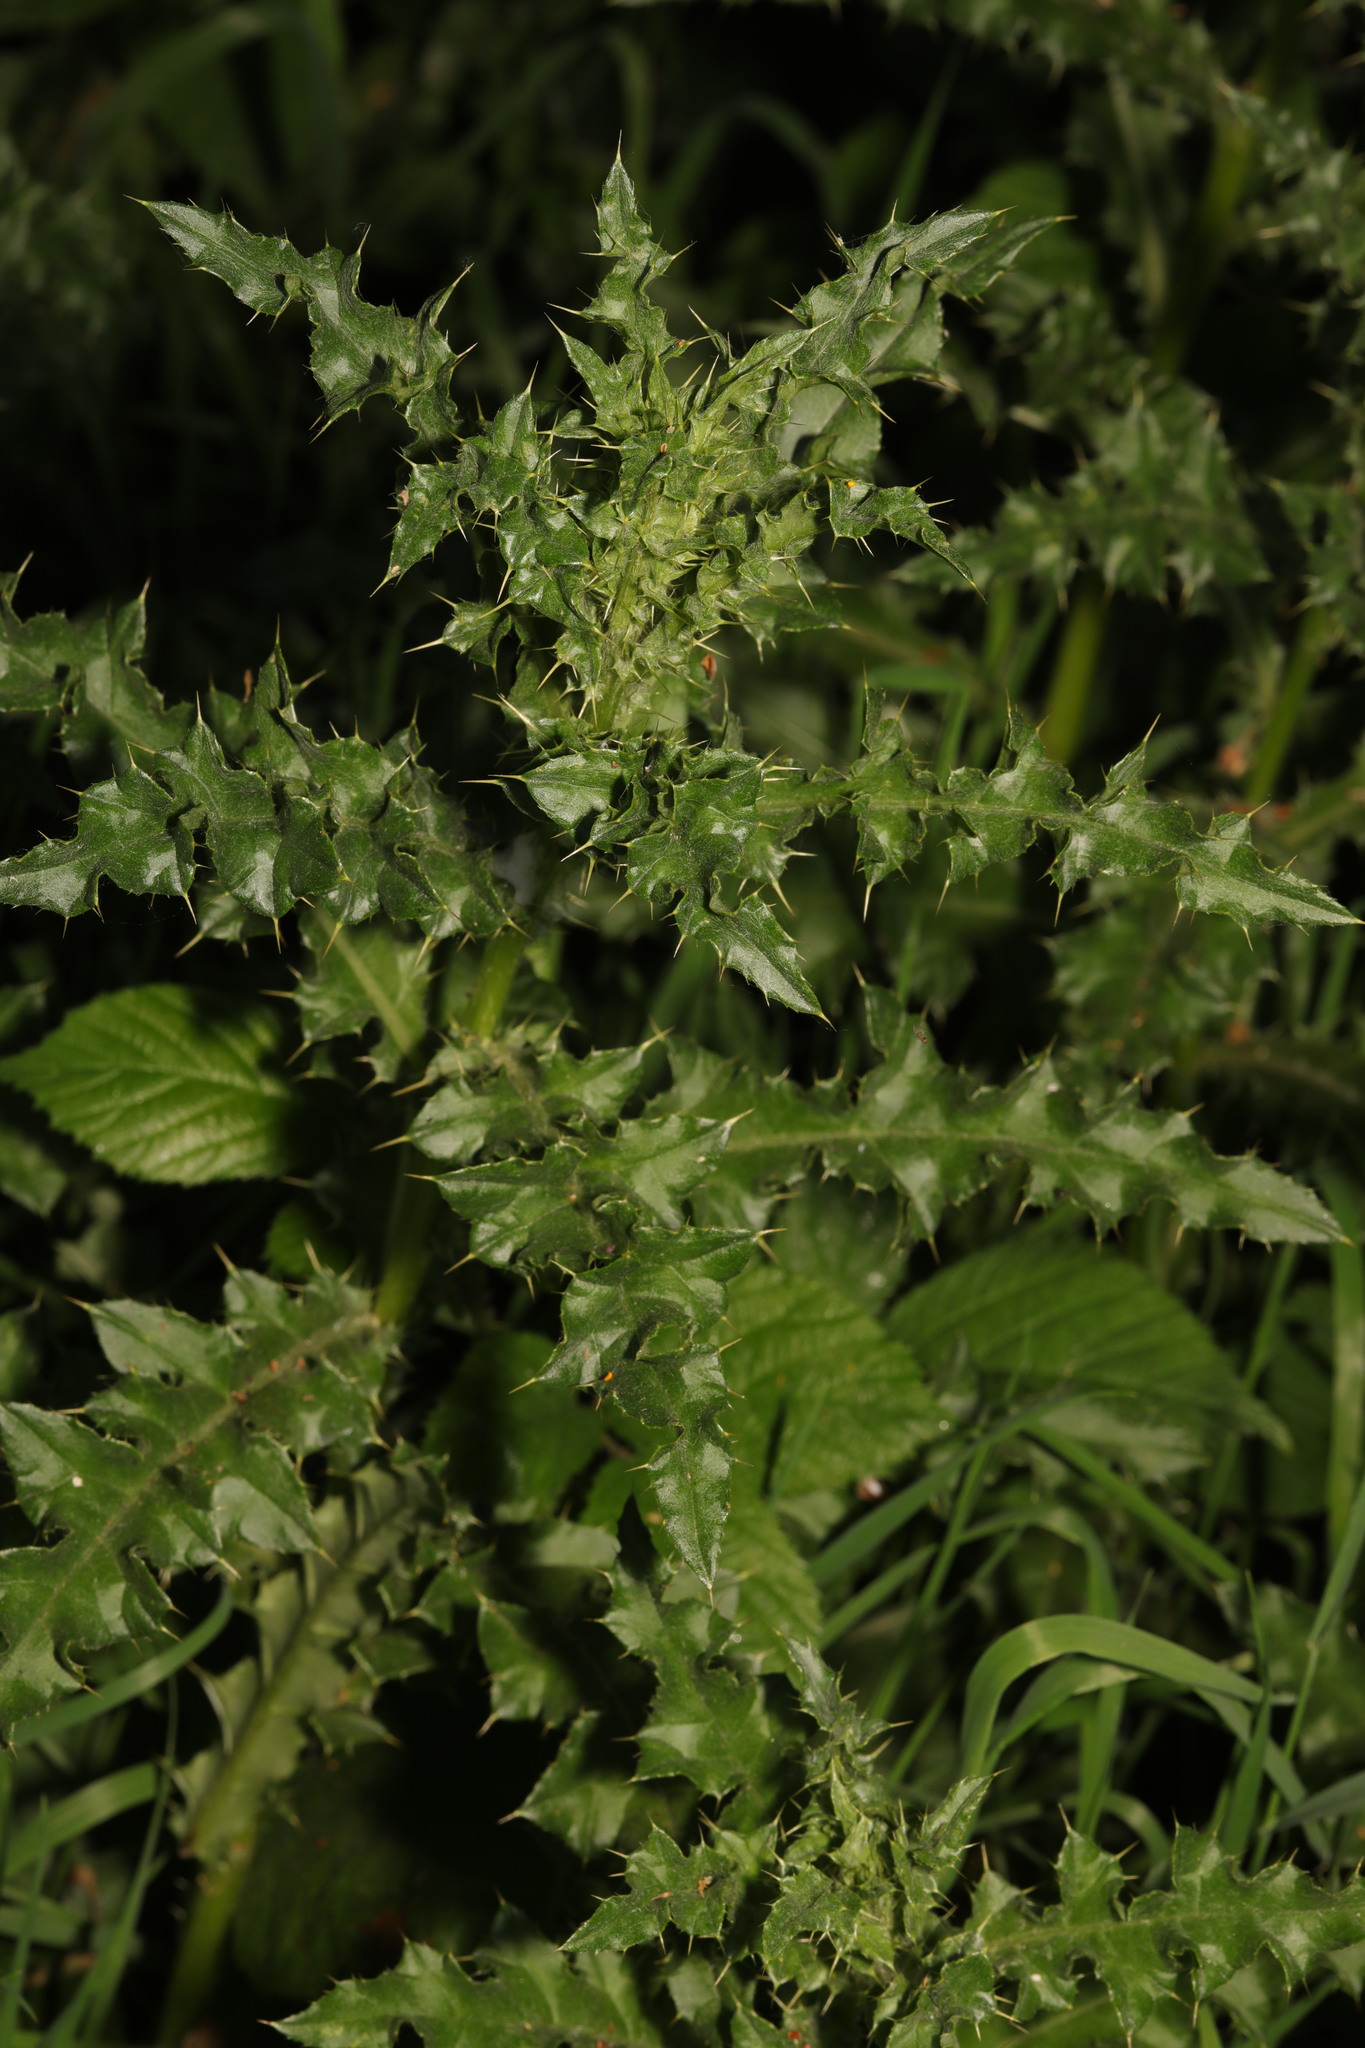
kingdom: Plantae
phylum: Tracheophyta
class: Magnoliopsida
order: Asterales
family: Asteraceae
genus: Cirsium
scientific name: Cirsium arvense
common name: Creeping thistle
